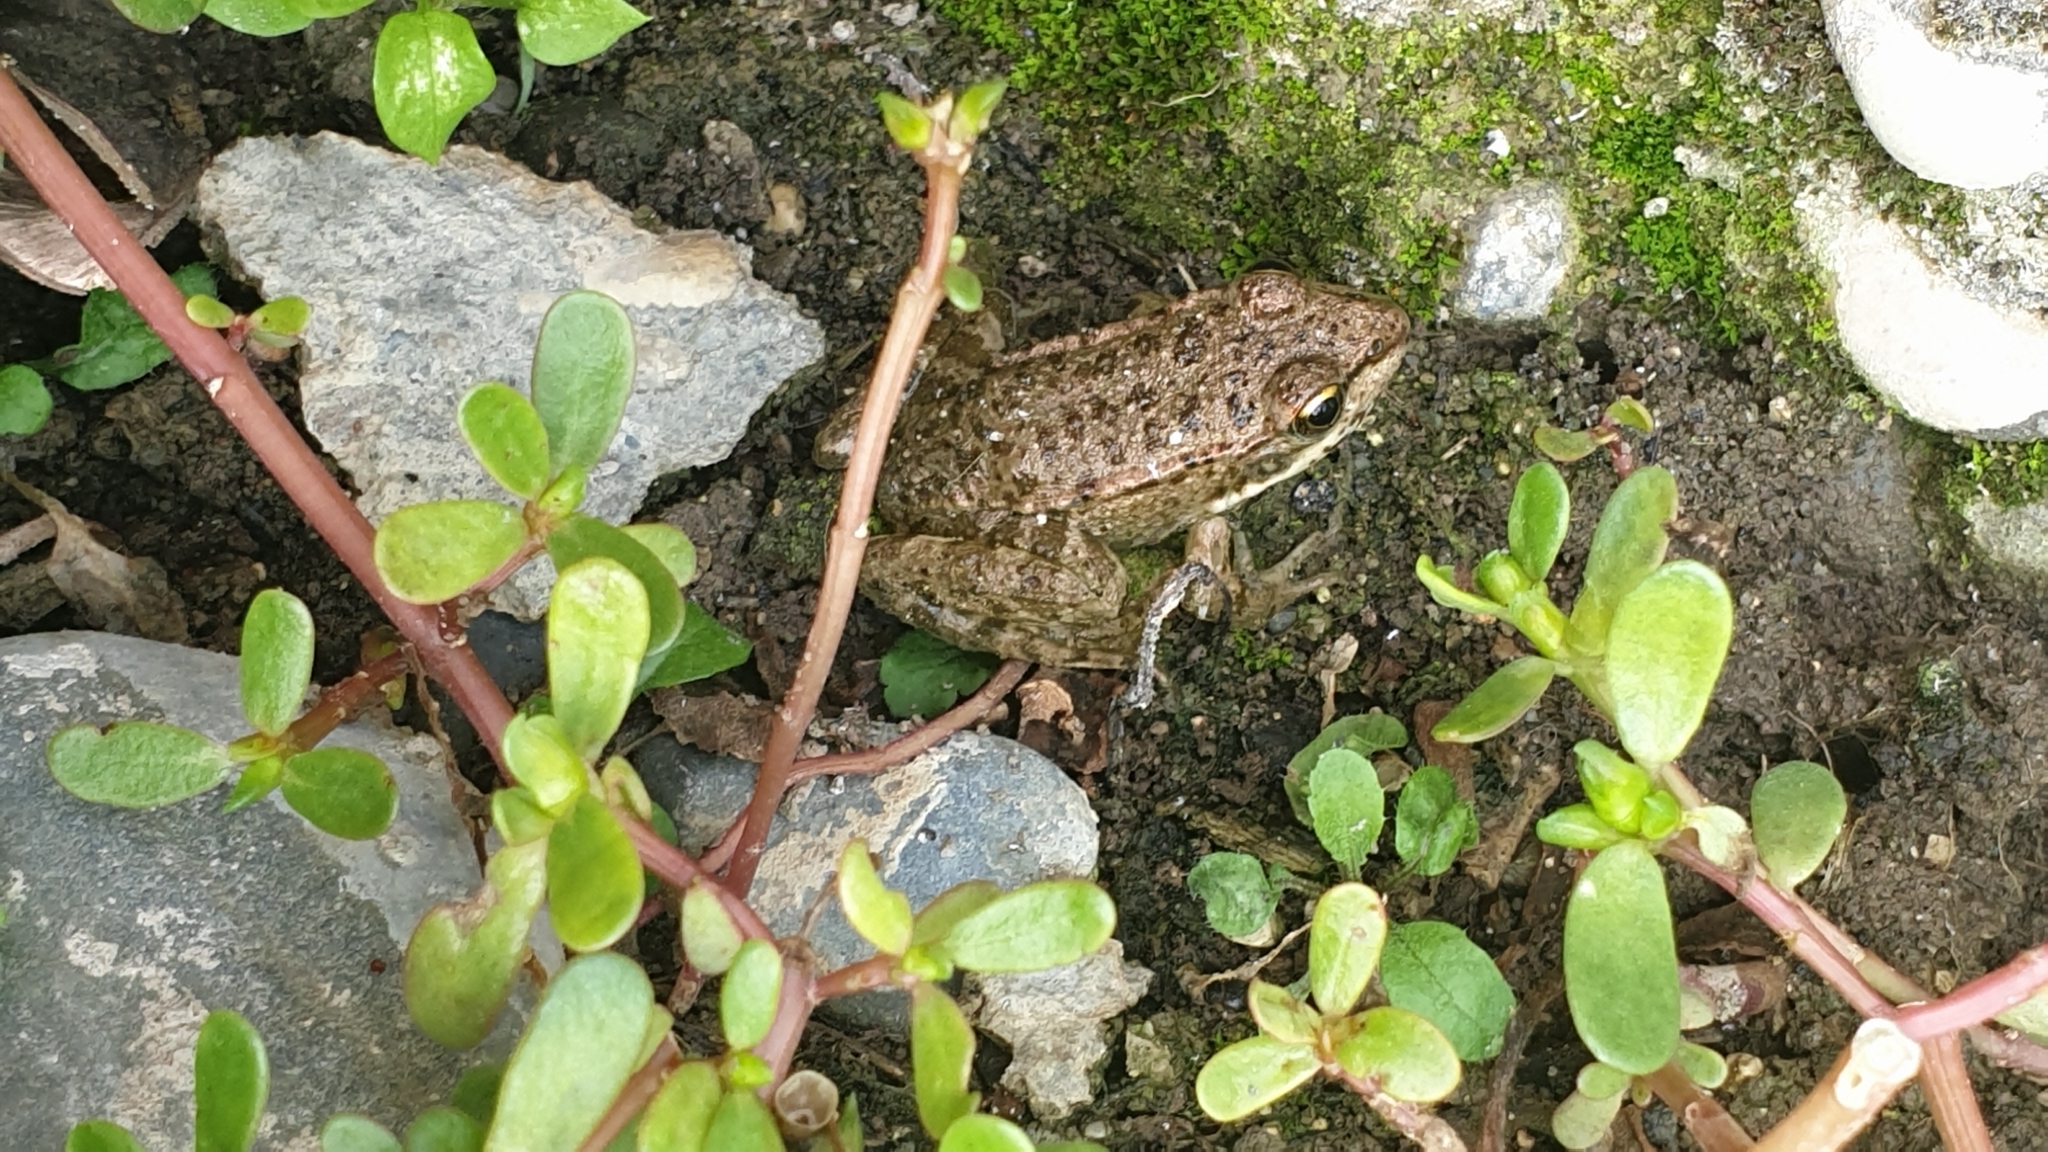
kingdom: Animalia
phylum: Chordata
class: Amphibia
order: Anura
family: Ranidae
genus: Pelophylax
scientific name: Pelophylax ridibundus
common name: Marsh frog
